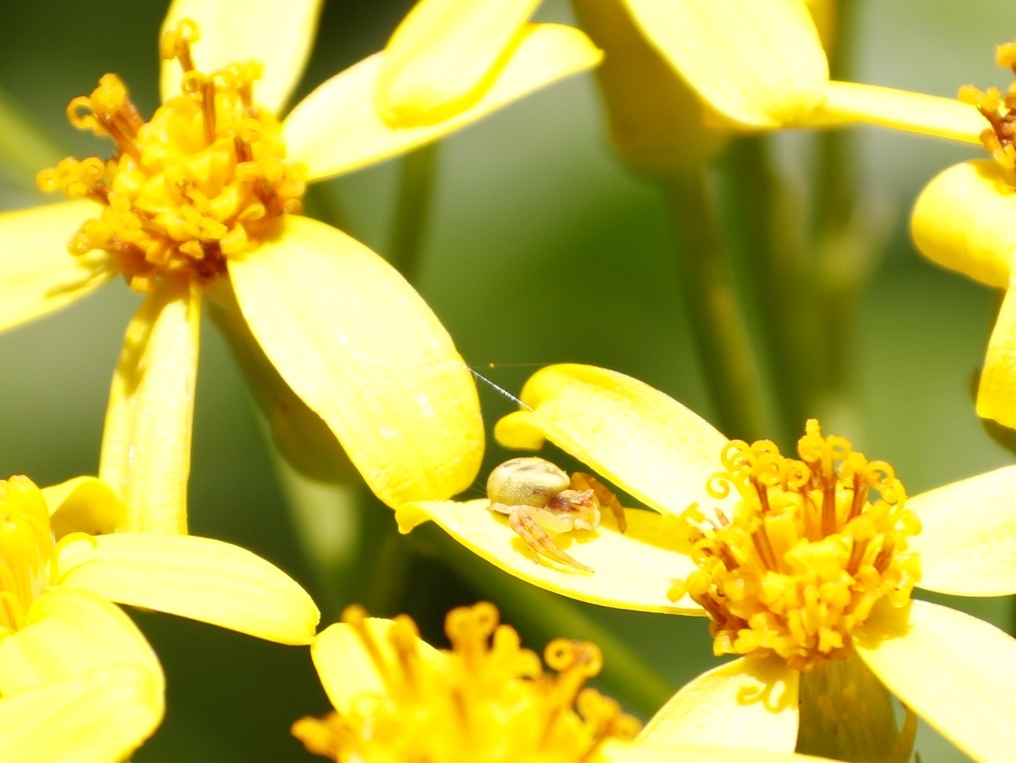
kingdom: Animalia
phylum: Arthropoda
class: Arachnida
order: Araneae
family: Thomisidae
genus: Thomisus
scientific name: Thomisus citrinellus
